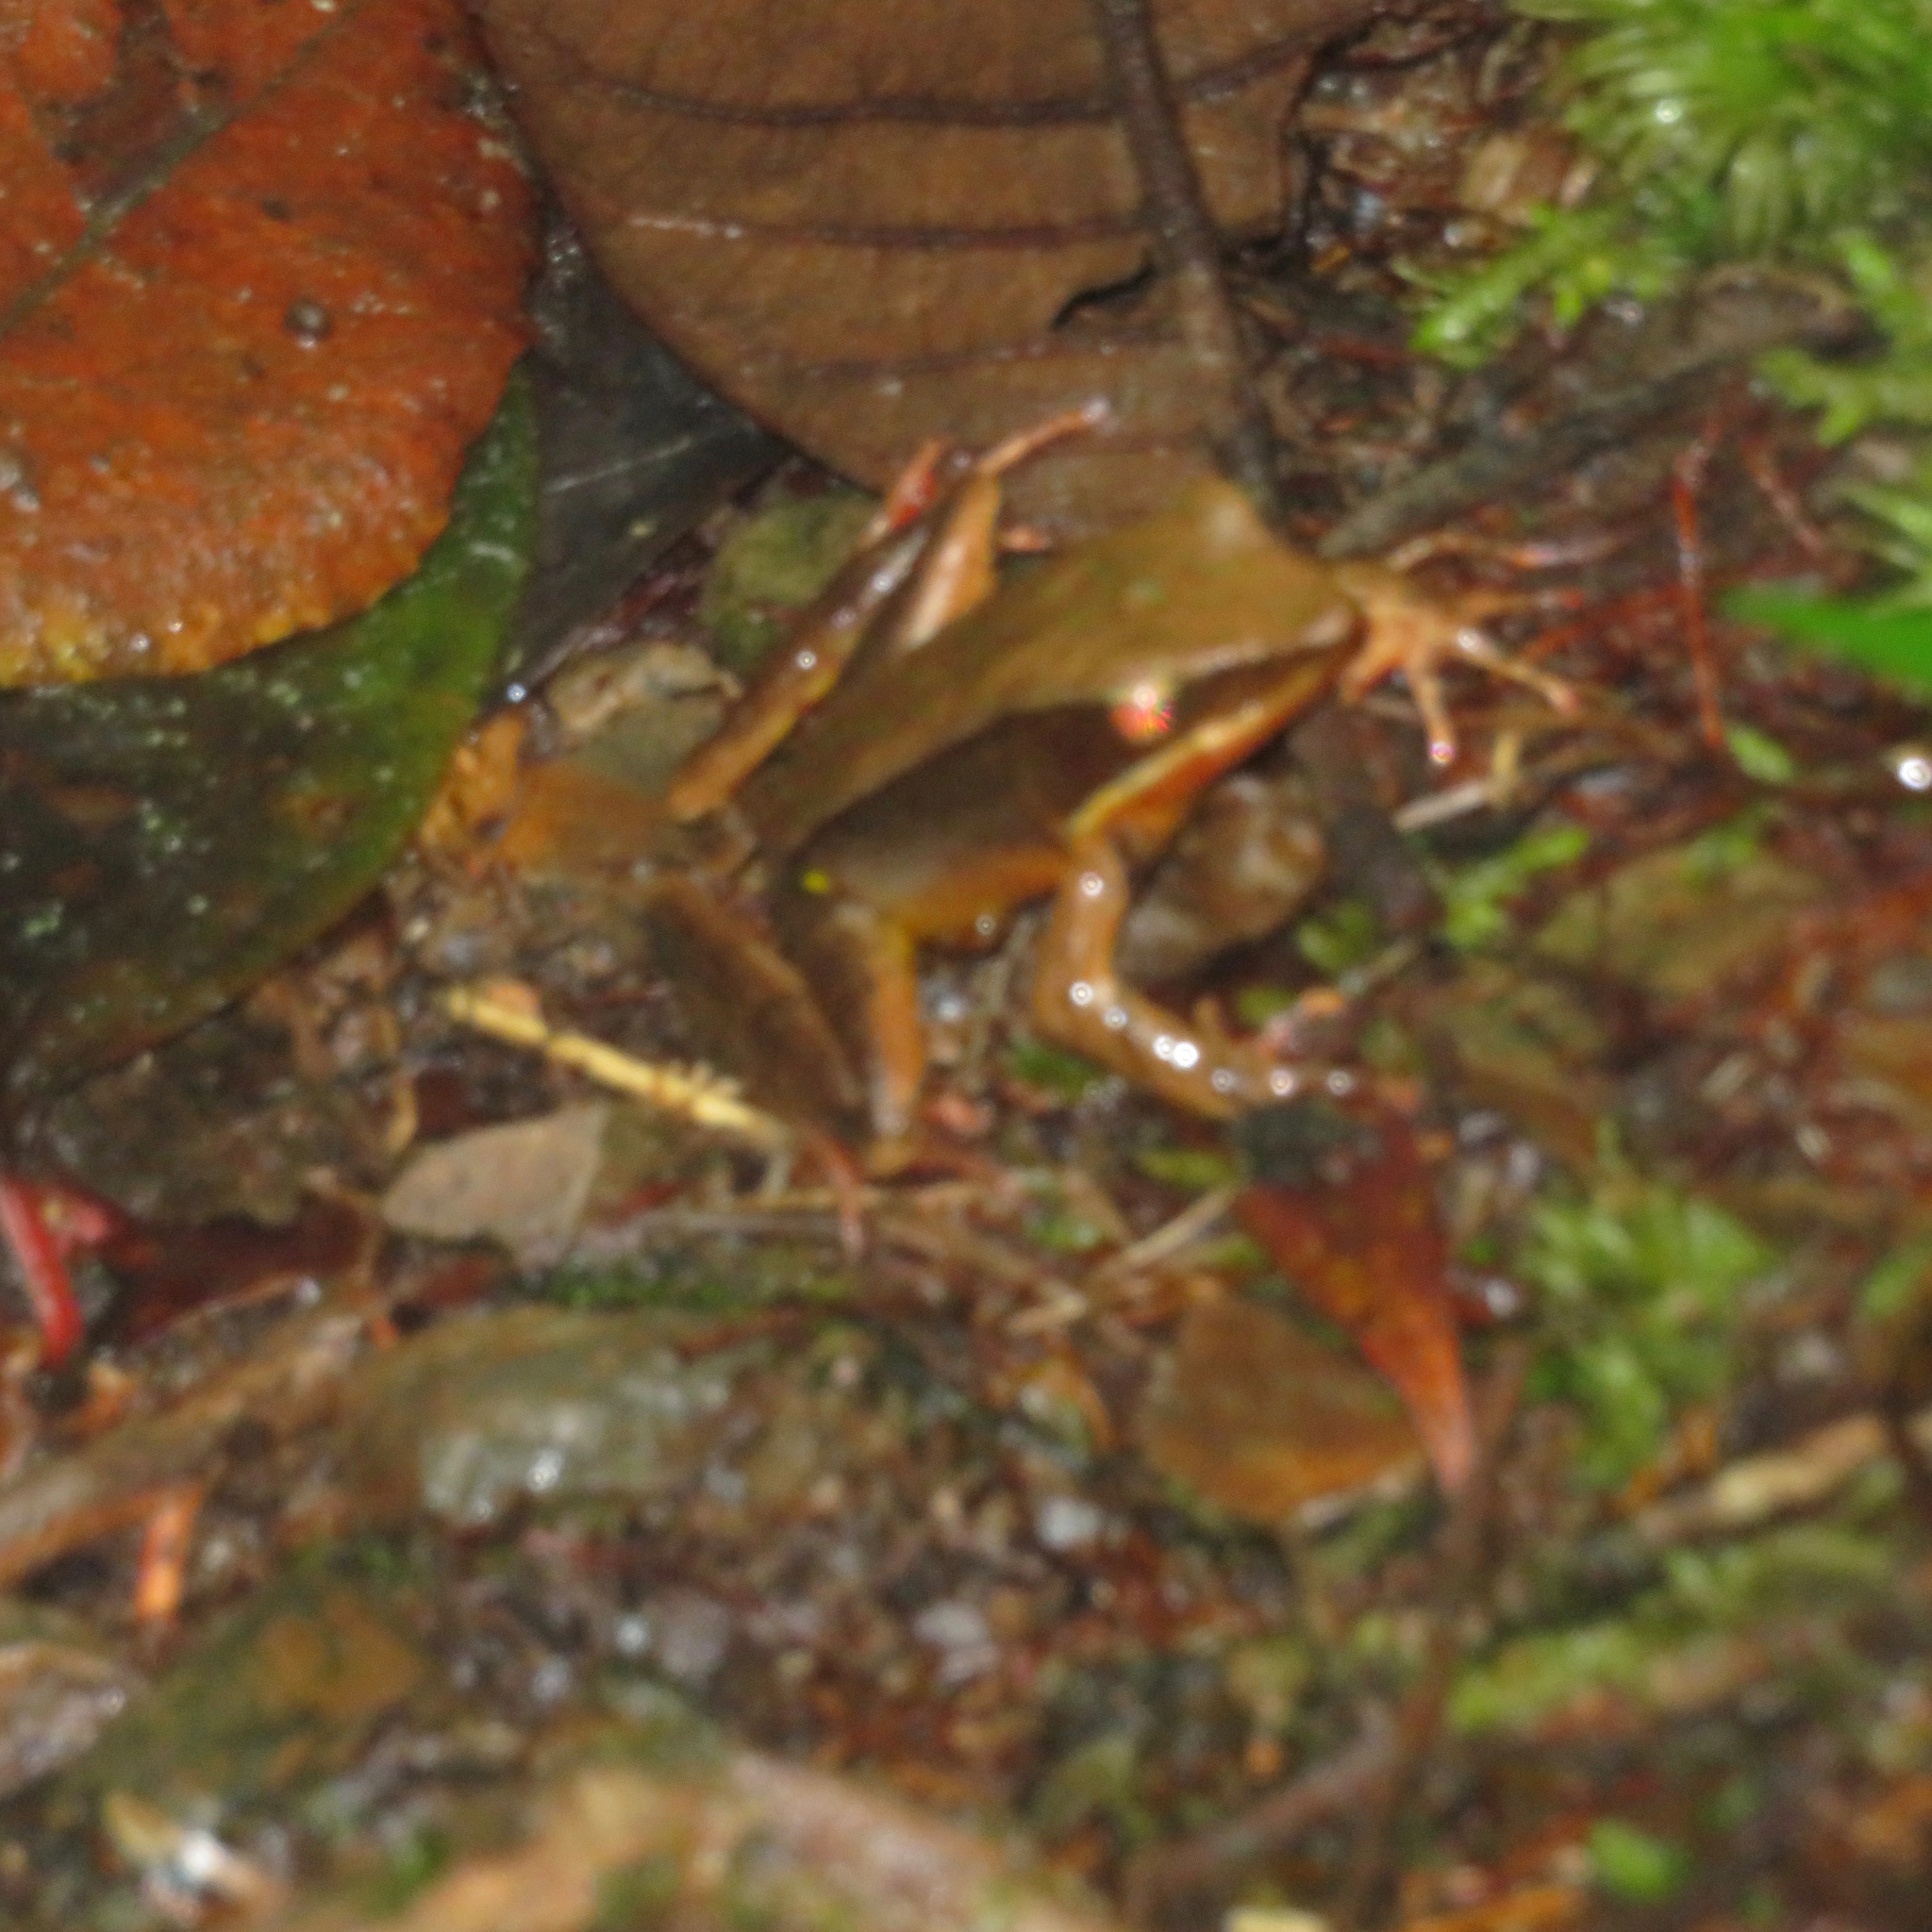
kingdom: Animalia
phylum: Chordata
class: Amphibia
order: Anura
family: Ranidae
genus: Lithobates
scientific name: Lithobates warszewitschii
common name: Warszewitsch's frog
